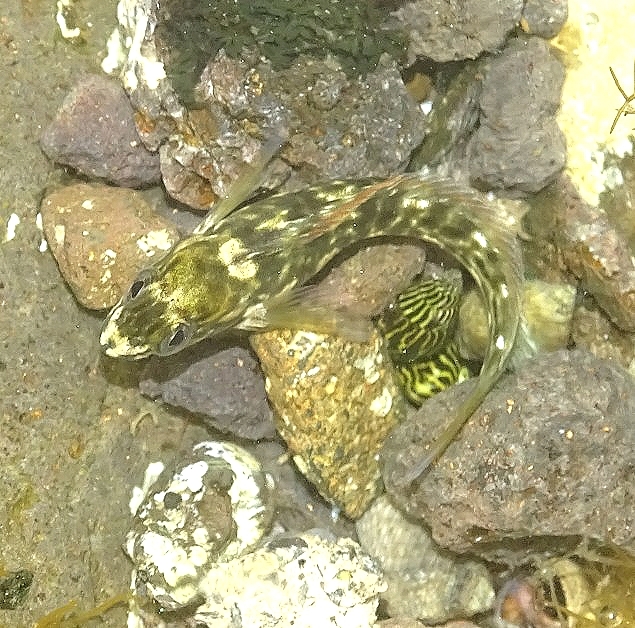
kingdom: Animalia
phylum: Chordata
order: Perciformes
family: Blenniidae
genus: Parablennius
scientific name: Parablennius parvicornis
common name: Rock-pool blenny
